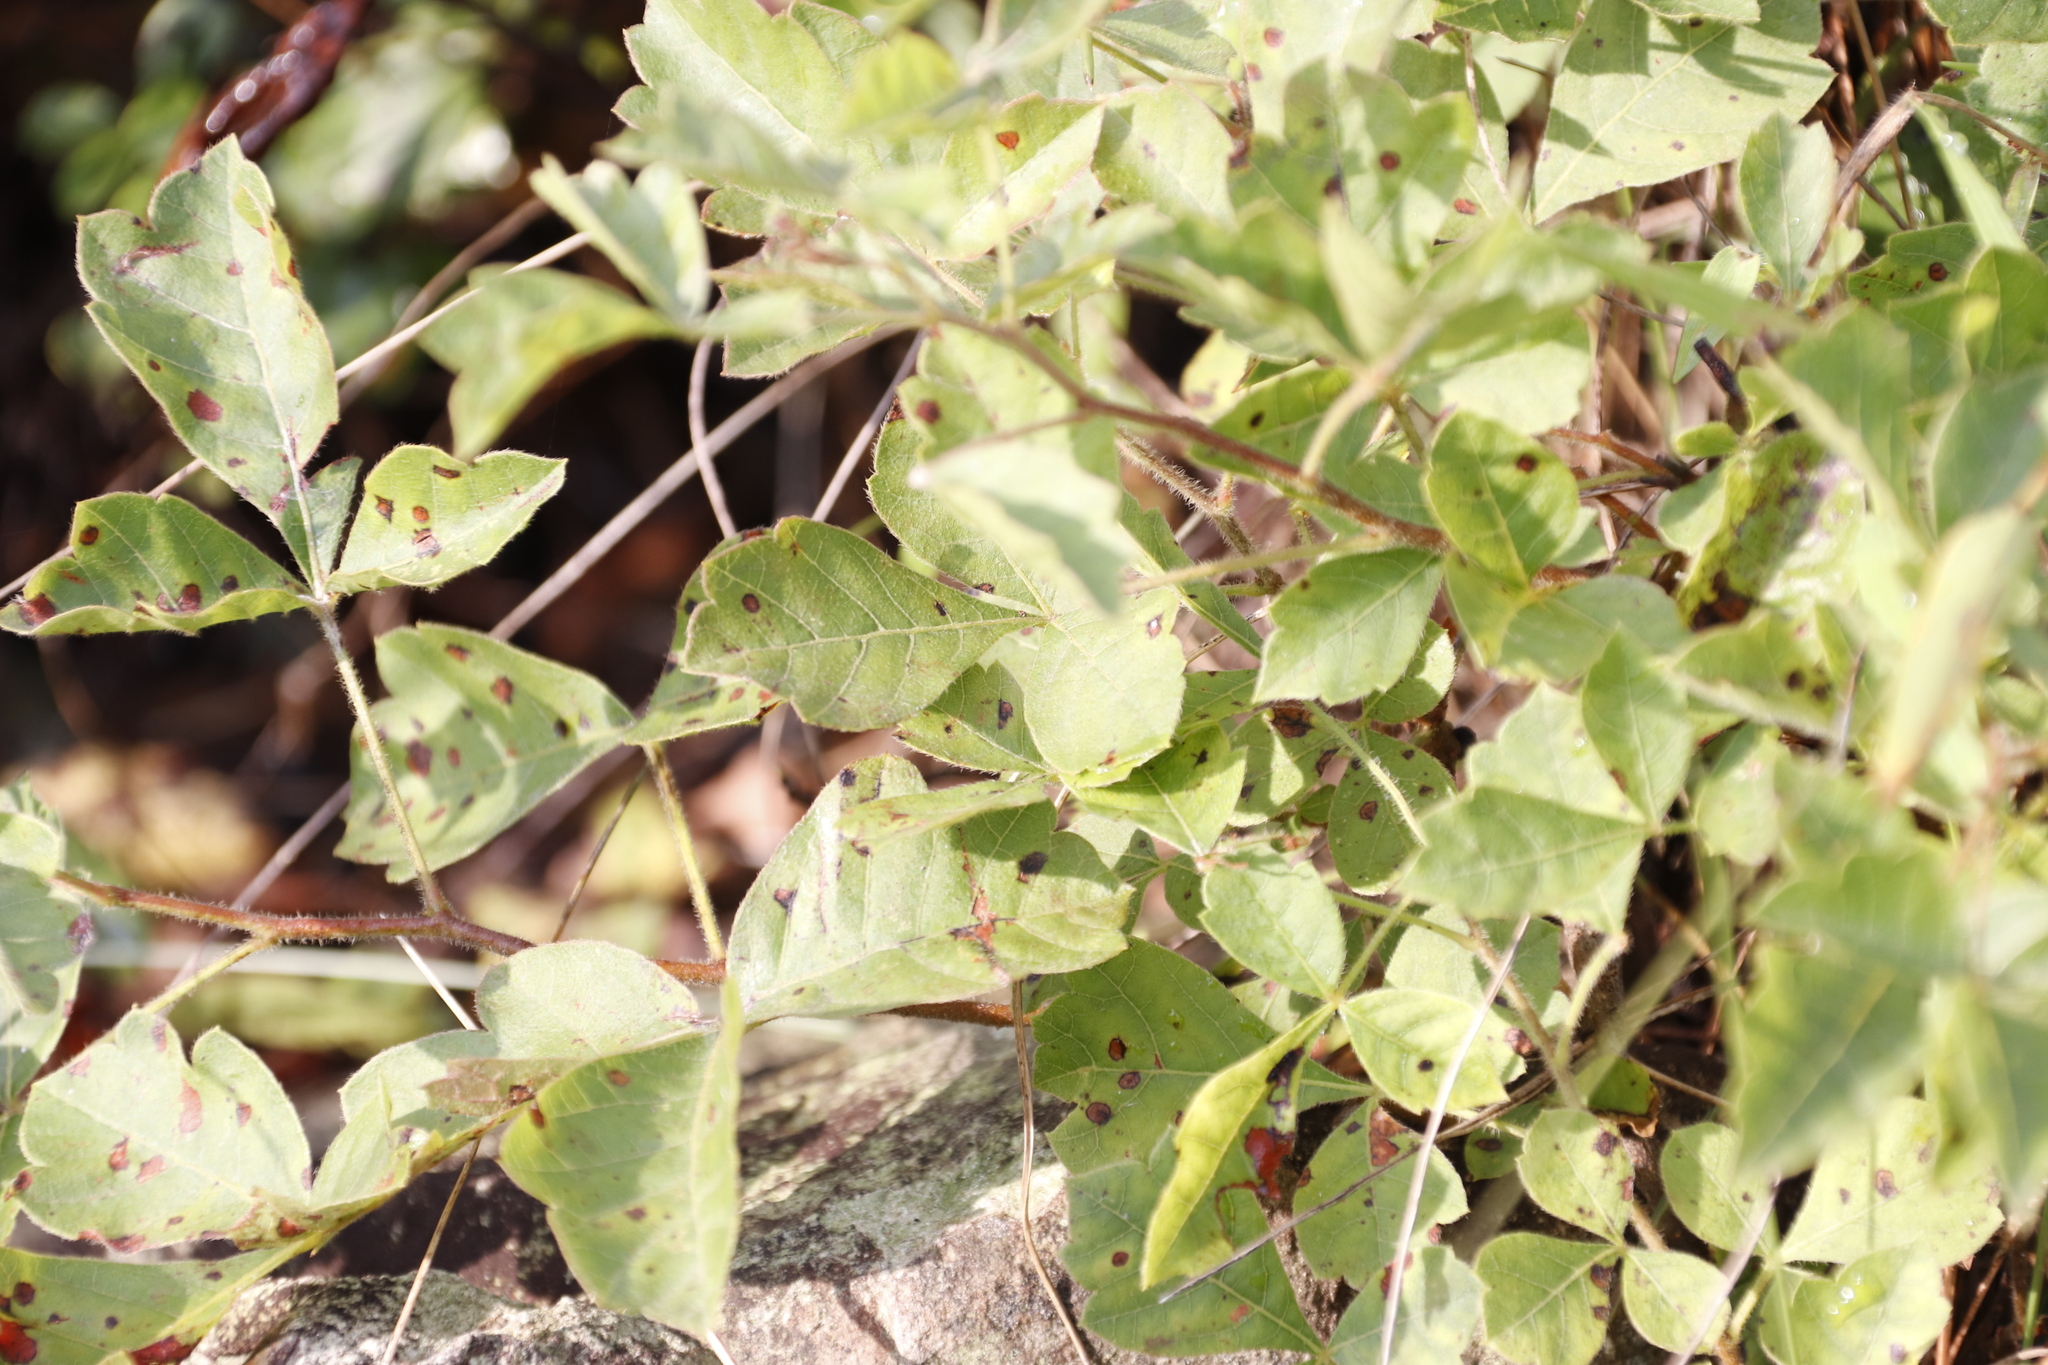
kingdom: Plantae
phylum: Tracheophyta
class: Magnoliopsida
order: Sapindales
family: Anacardiaceae
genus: Searsia
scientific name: Searsia dentata
